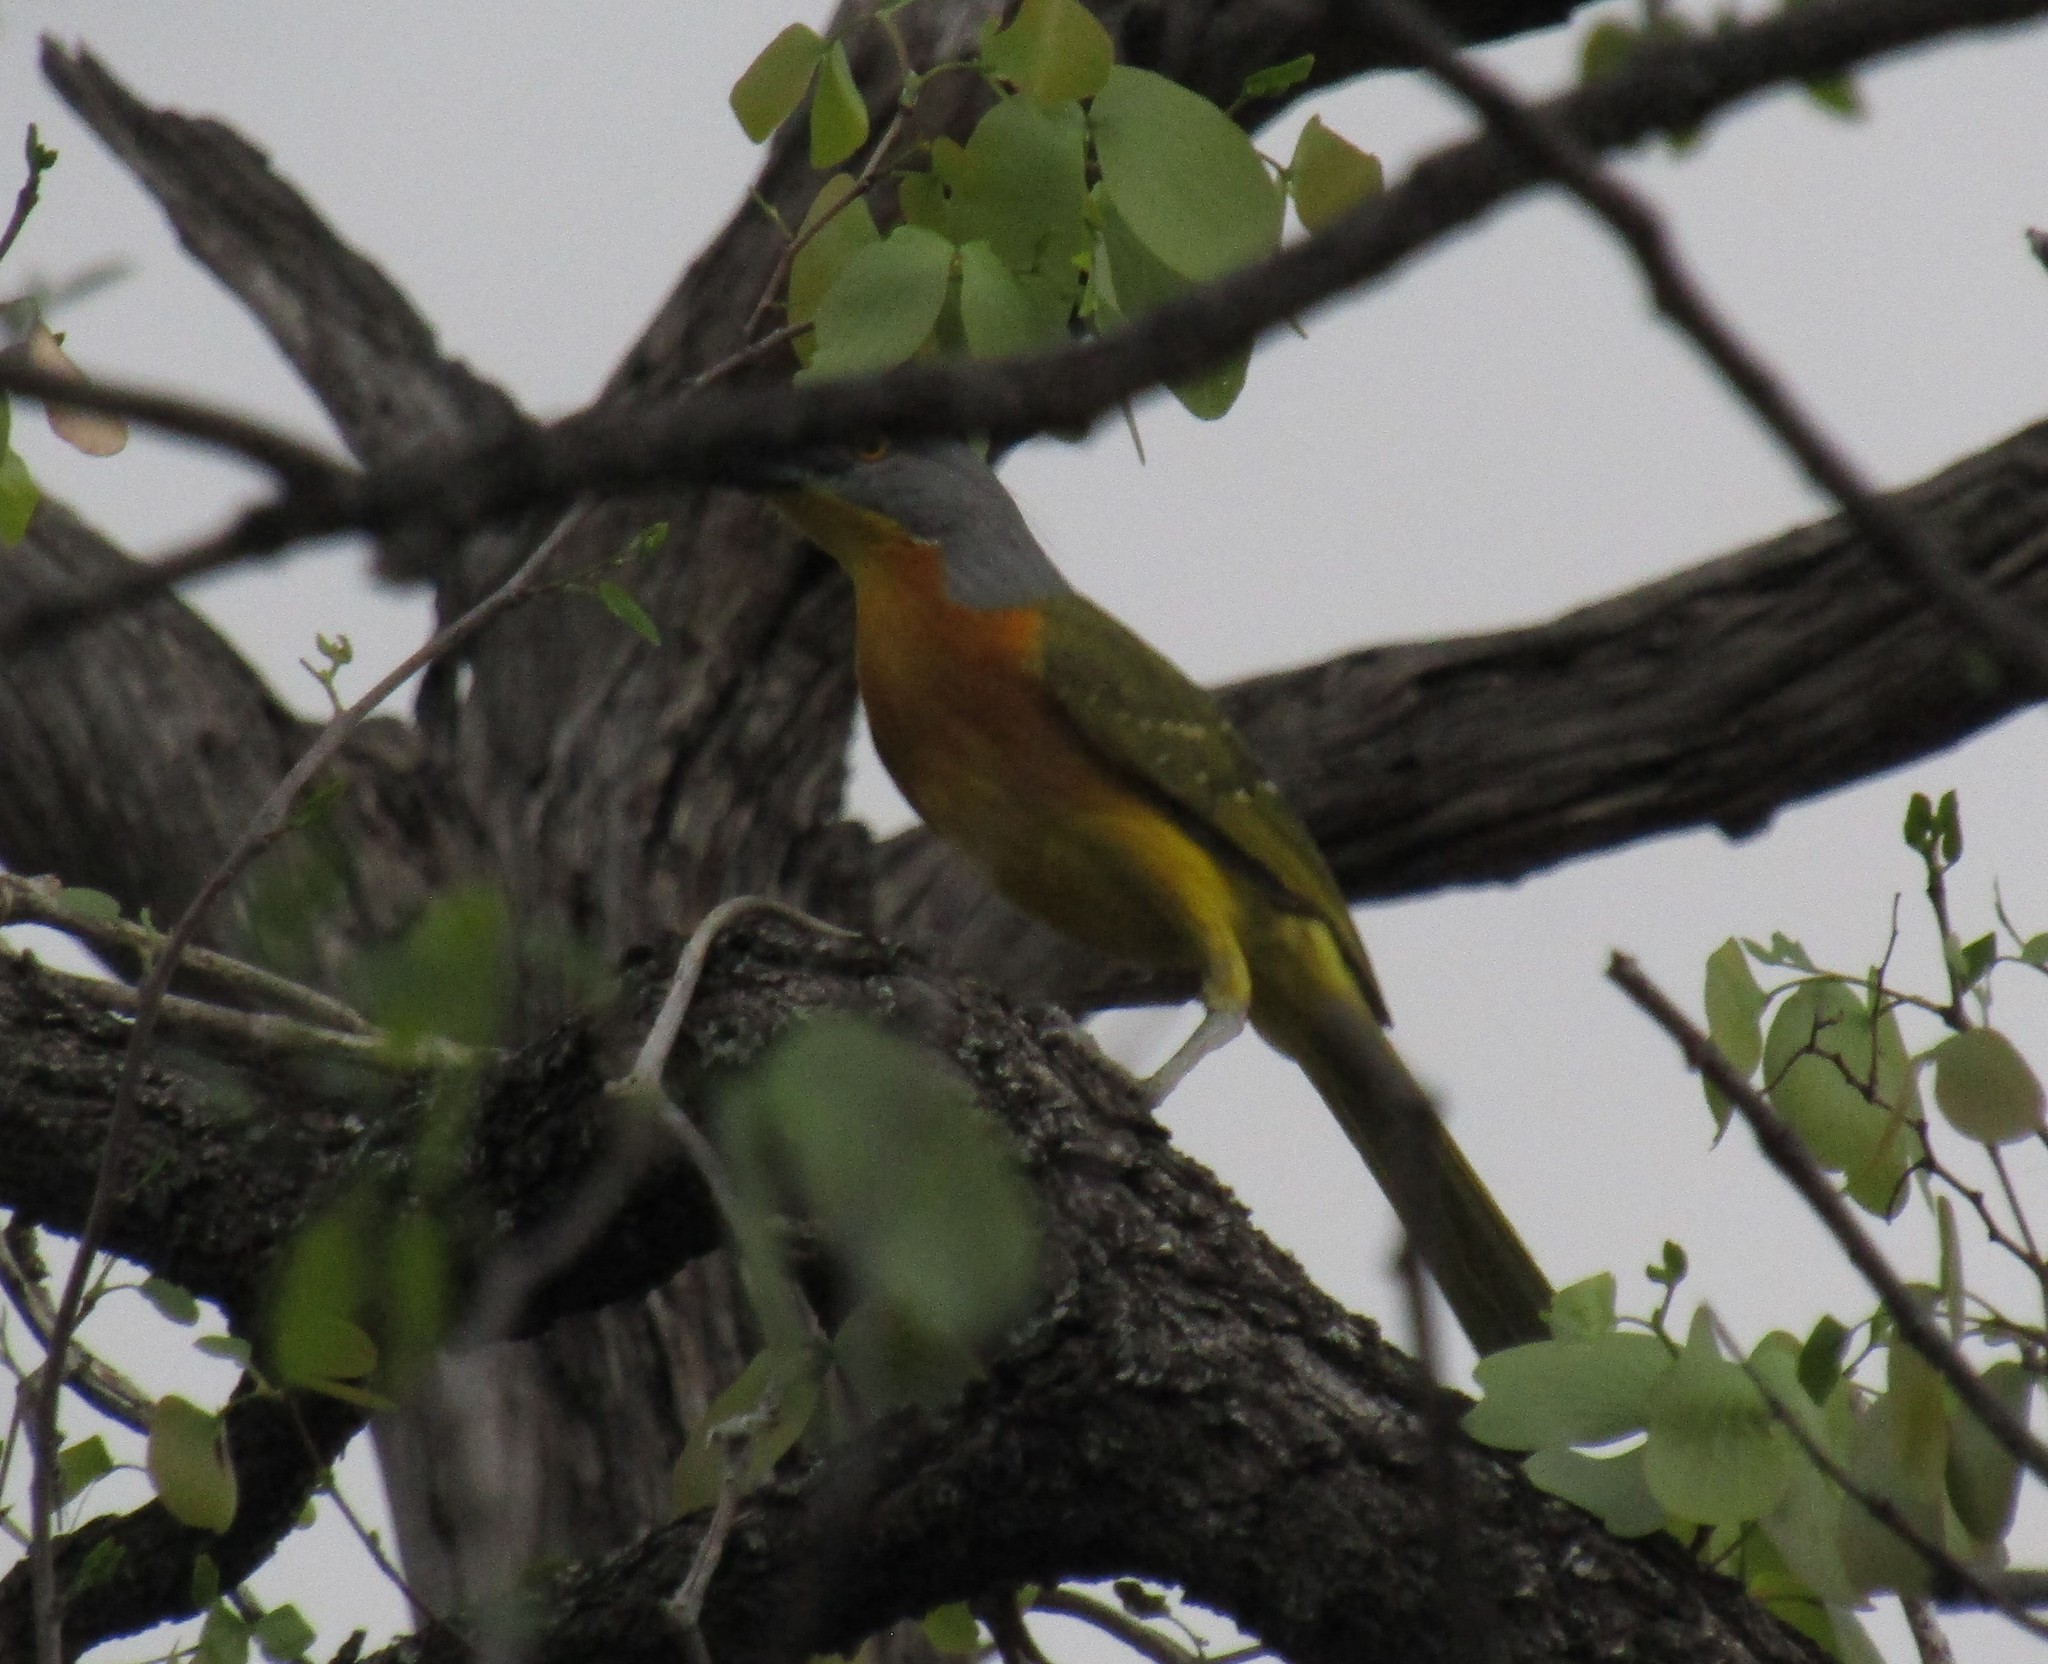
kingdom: Animalia
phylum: Chordata
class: Aves
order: Passeriformes
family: Malaconotidae
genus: Malaconotus
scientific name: Malaconotus blanchoti
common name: Grey-headed bushshrike
